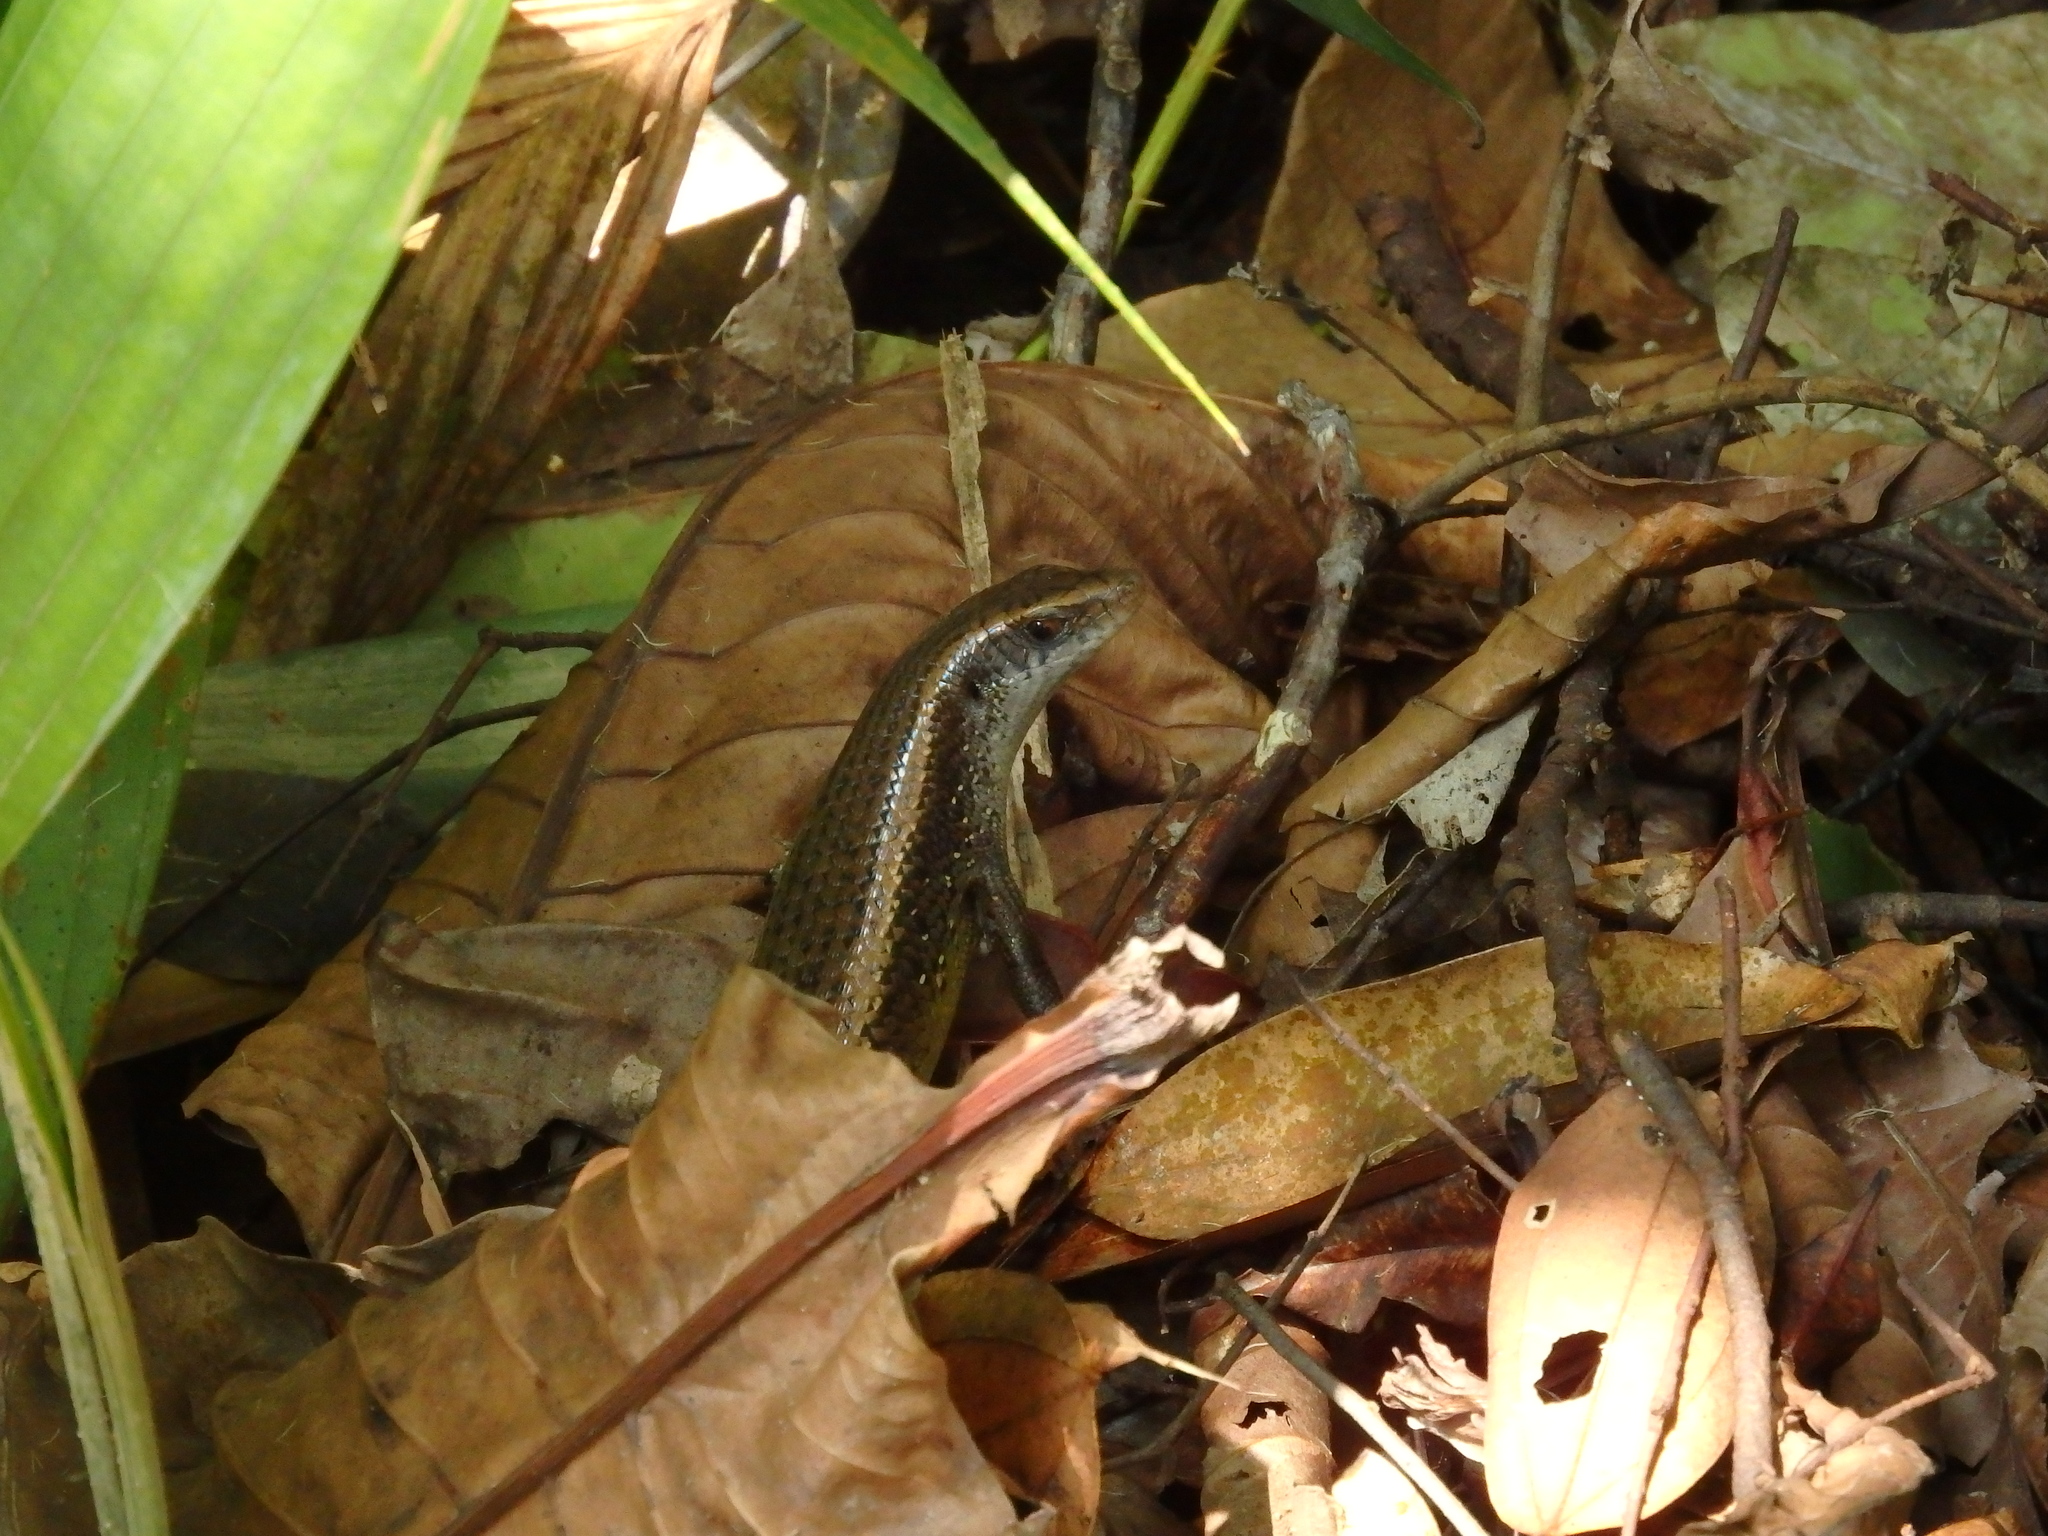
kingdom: Animalia
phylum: Chordata
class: Squamata
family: Scincidae
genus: Eutropis
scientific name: Eutropis multifasciata
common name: Common mabuya
